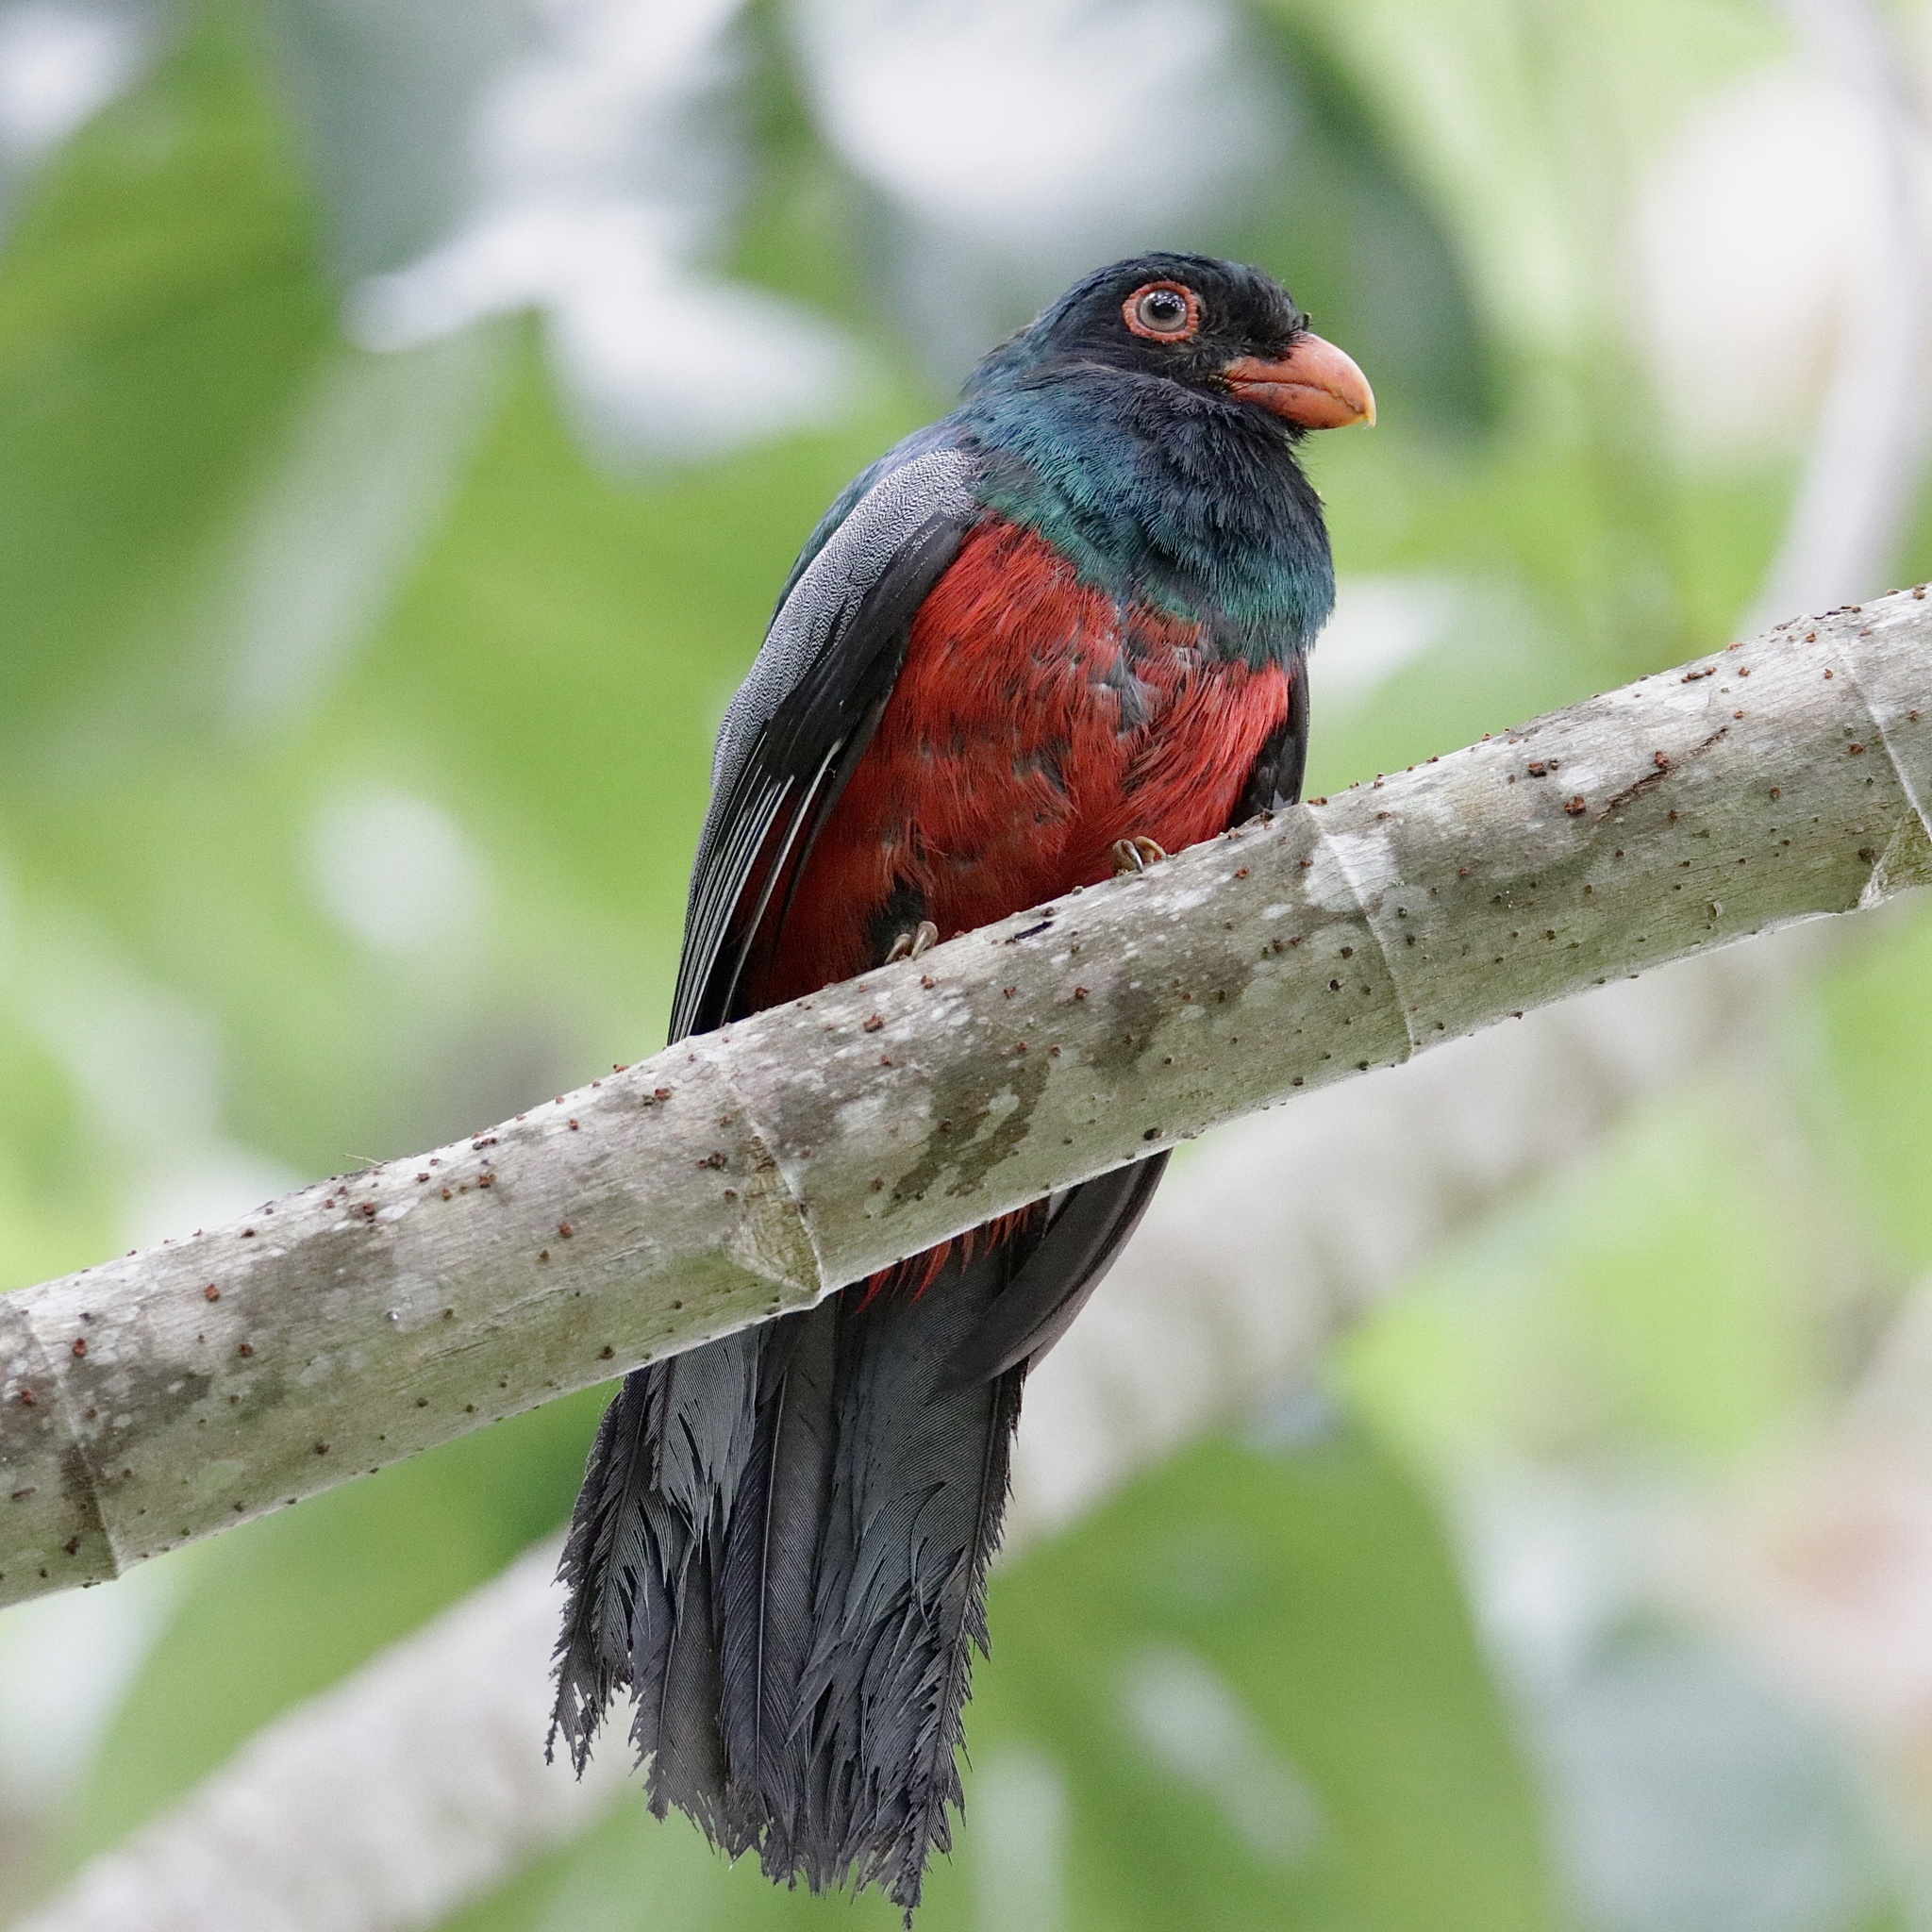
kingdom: Animalia
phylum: Chordata
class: Aves
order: Trogoniformes
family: Trogonidae
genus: Trogon
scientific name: Trogon massena
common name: Slaty-tailed trogon
